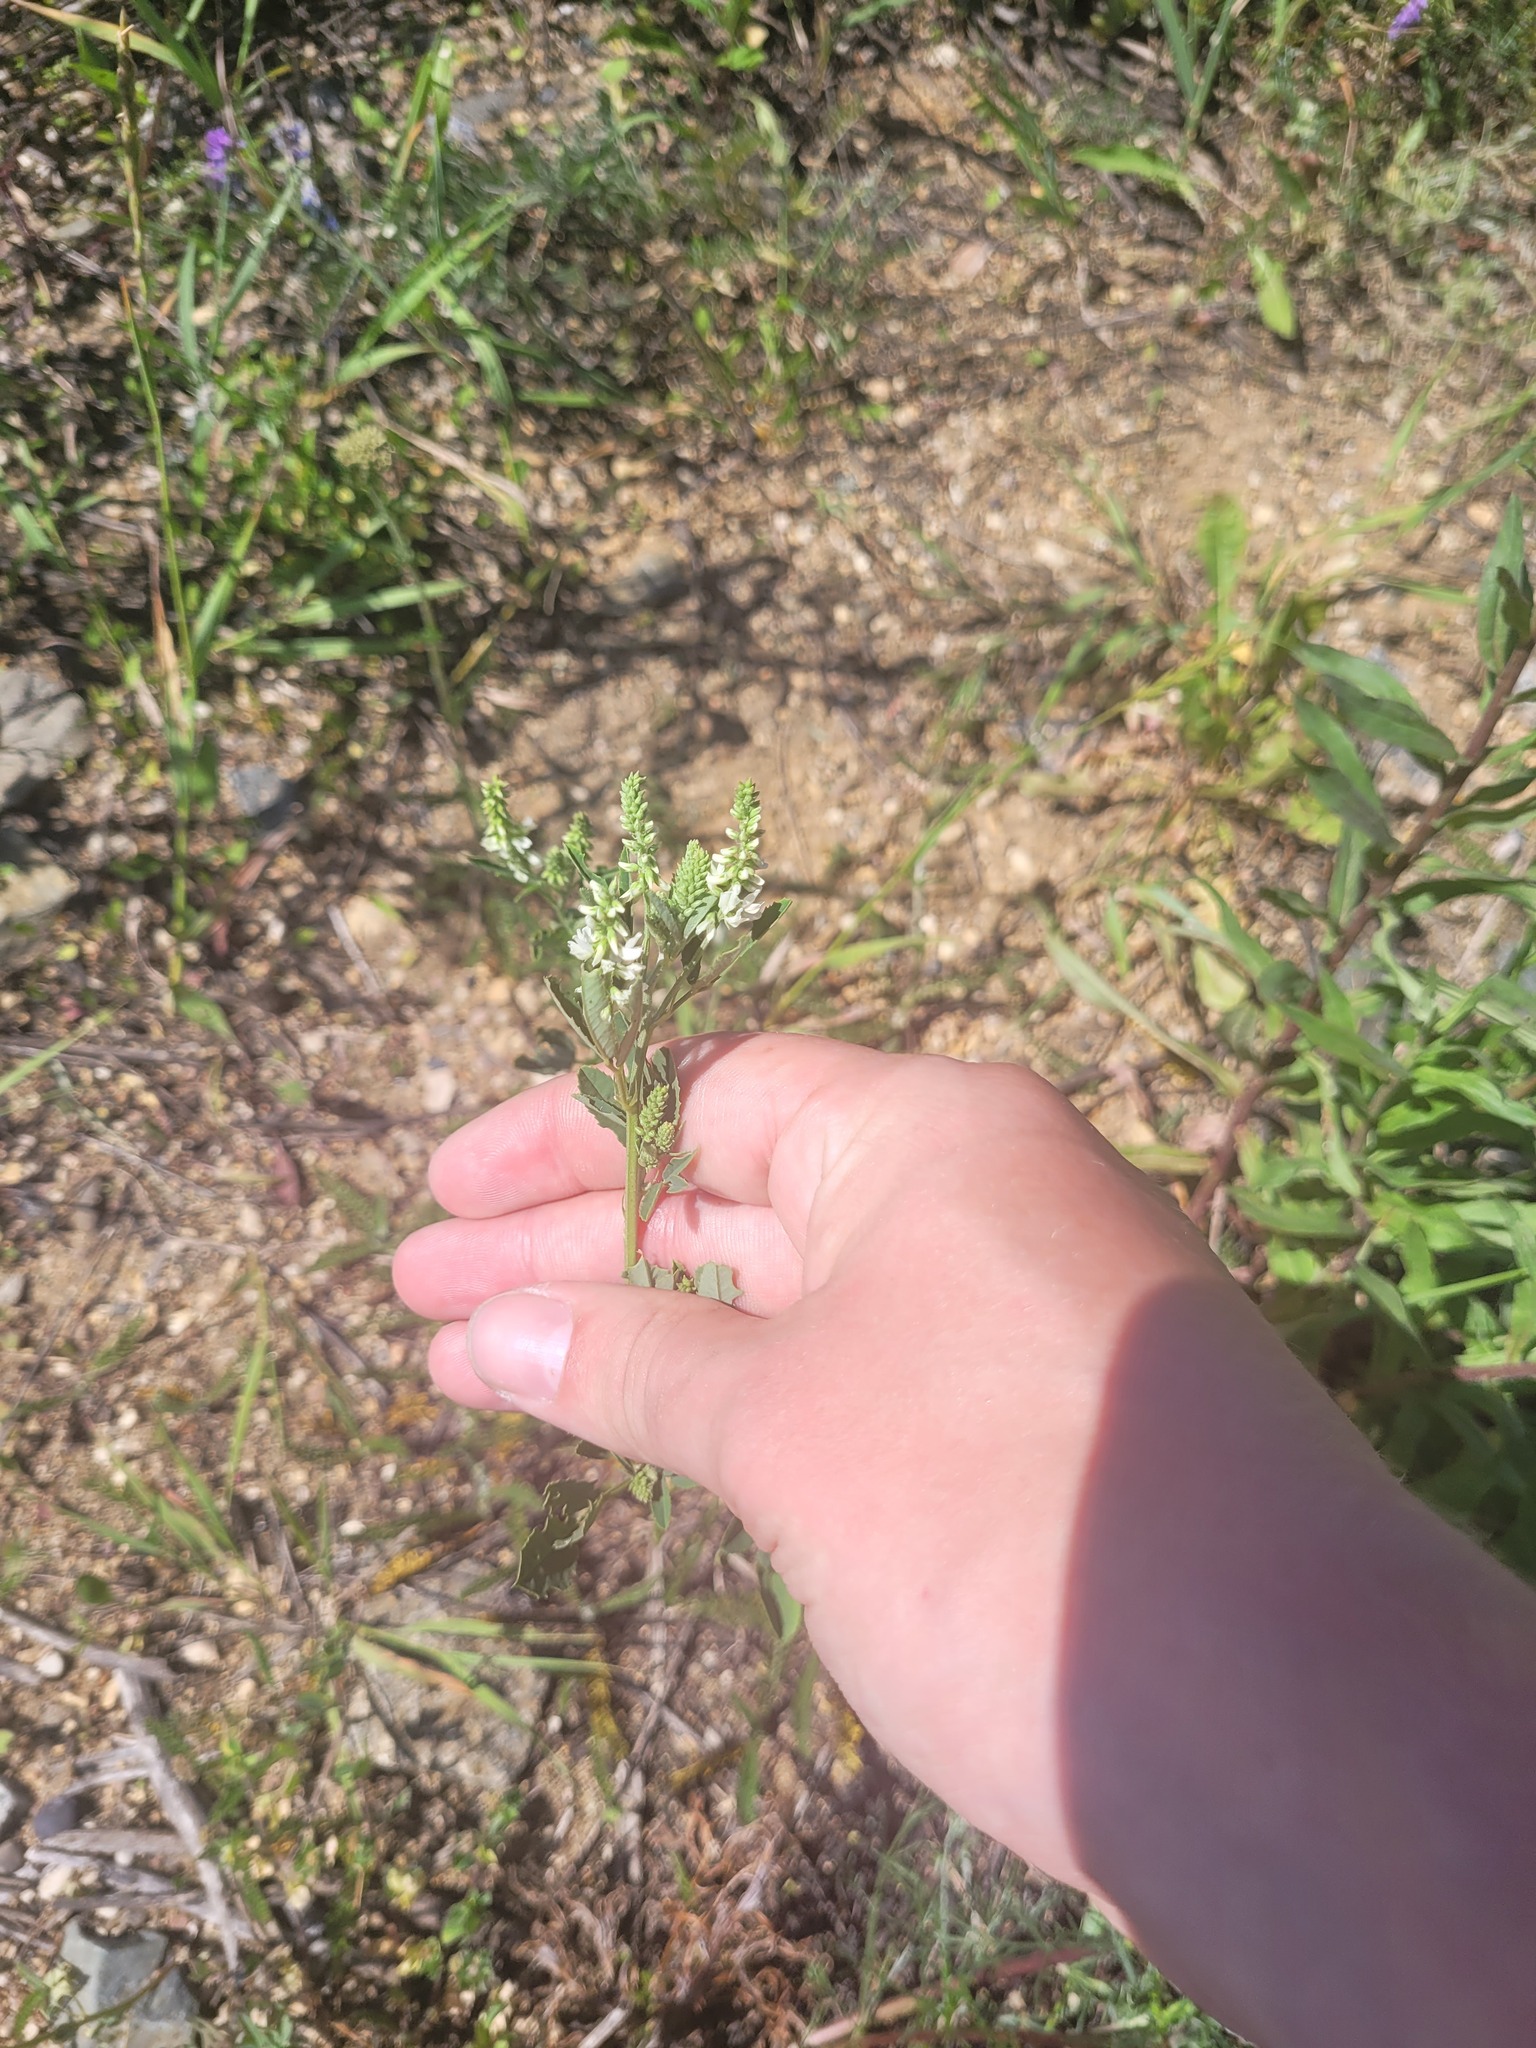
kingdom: Plantae
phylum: Tracheophyta
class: Magnoliopsida
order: Fabales
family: Fabaceae
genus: Melilotus
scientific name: Melilotus albus
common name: White melilot
